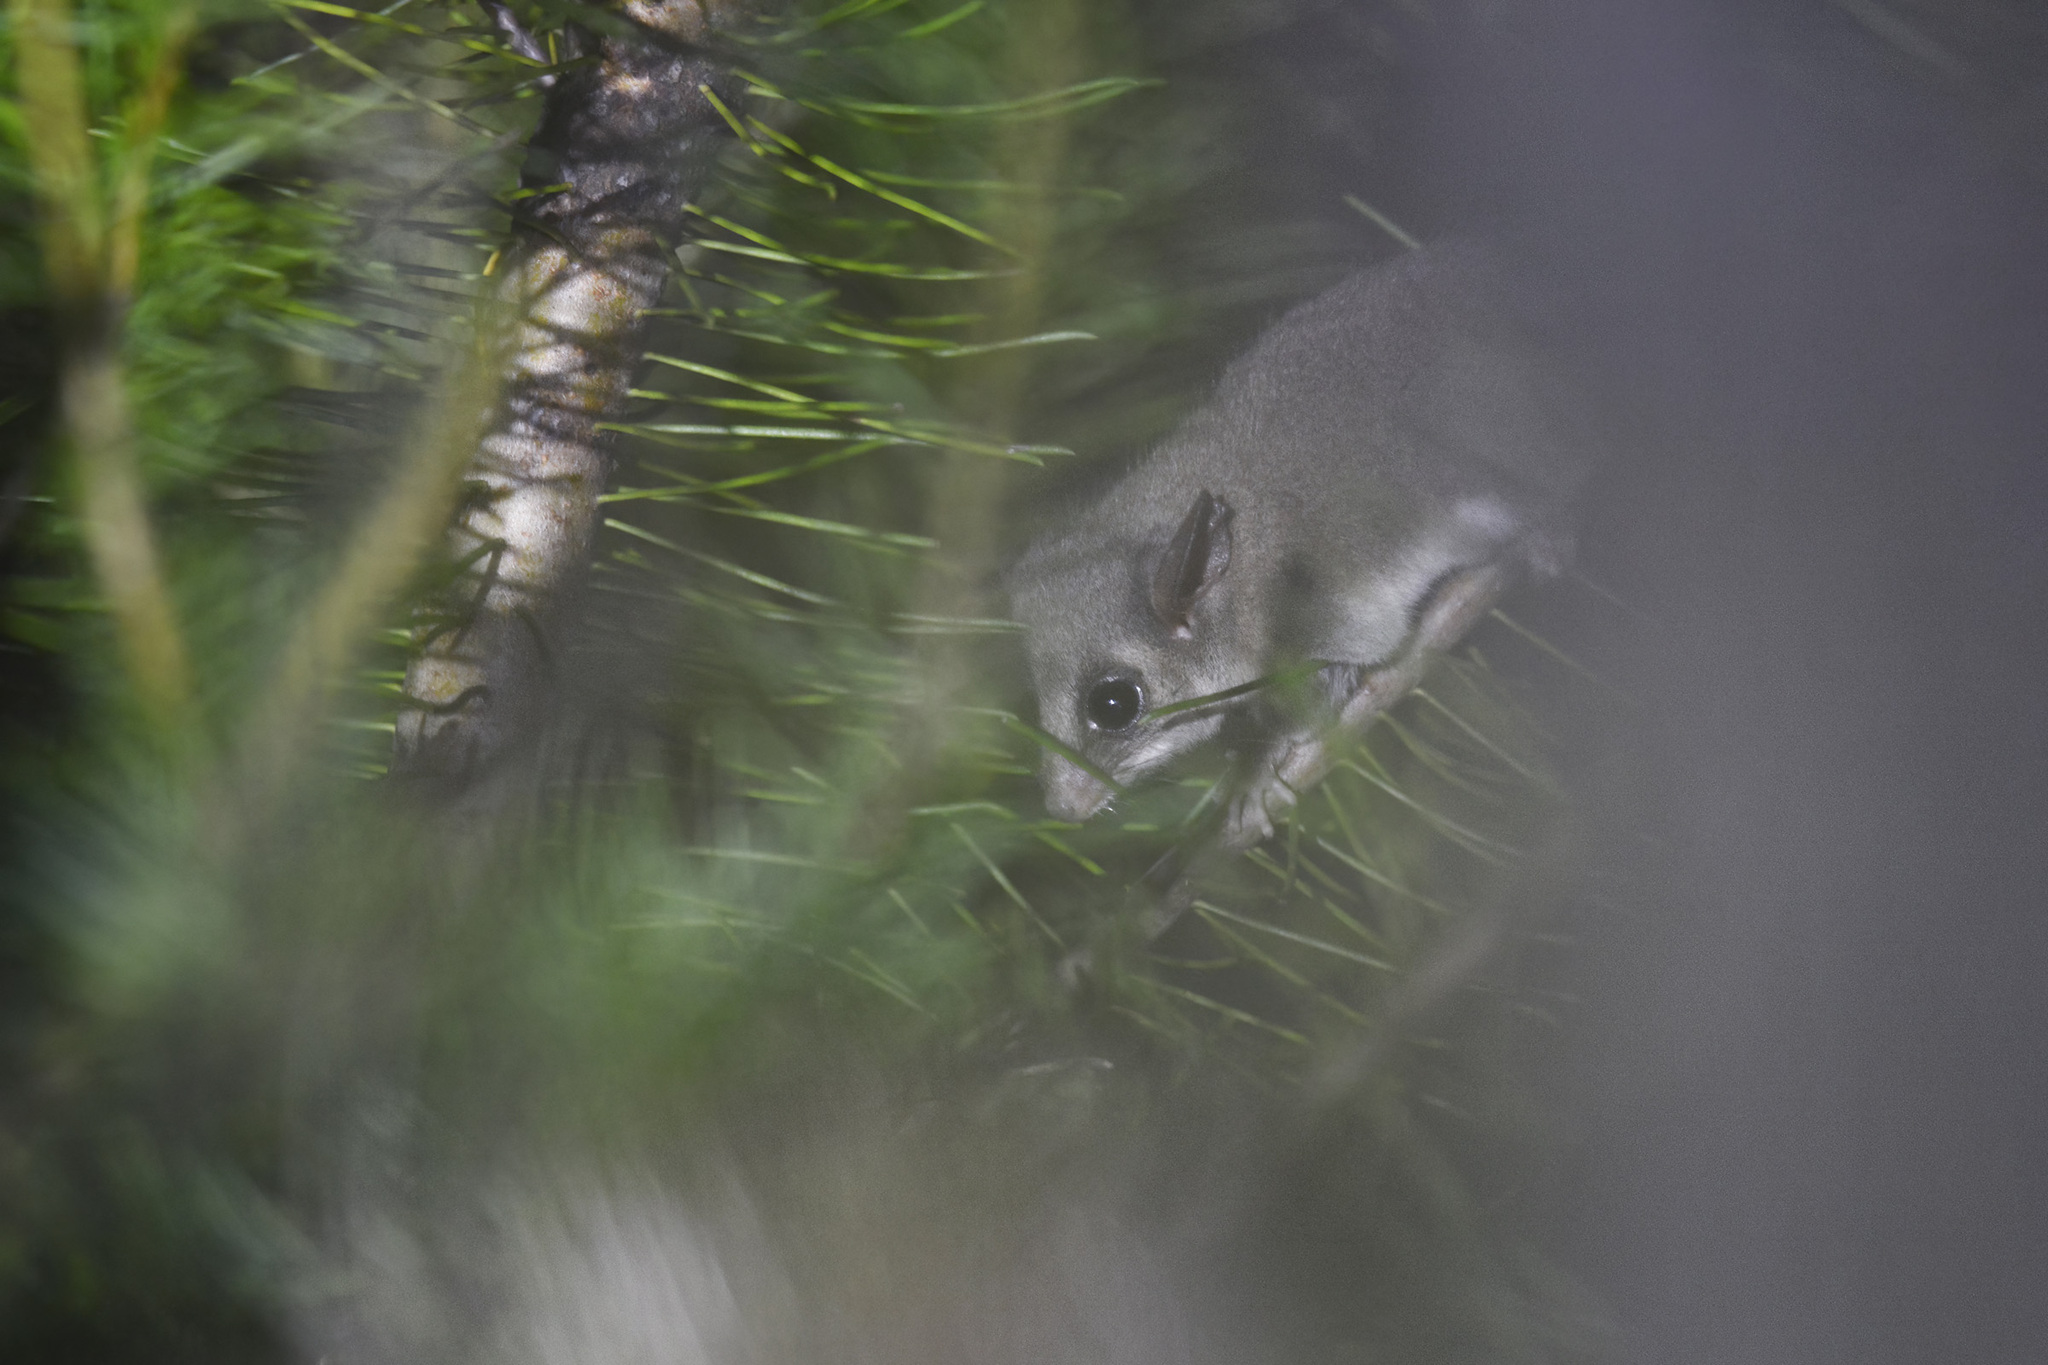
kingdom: Animalia
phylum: Chordata
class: Mammalia
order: Diprotodontia
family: Burramyidae
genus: Cercartetus
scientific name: Cercartetus nanus
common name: Eastern pygmy possum
